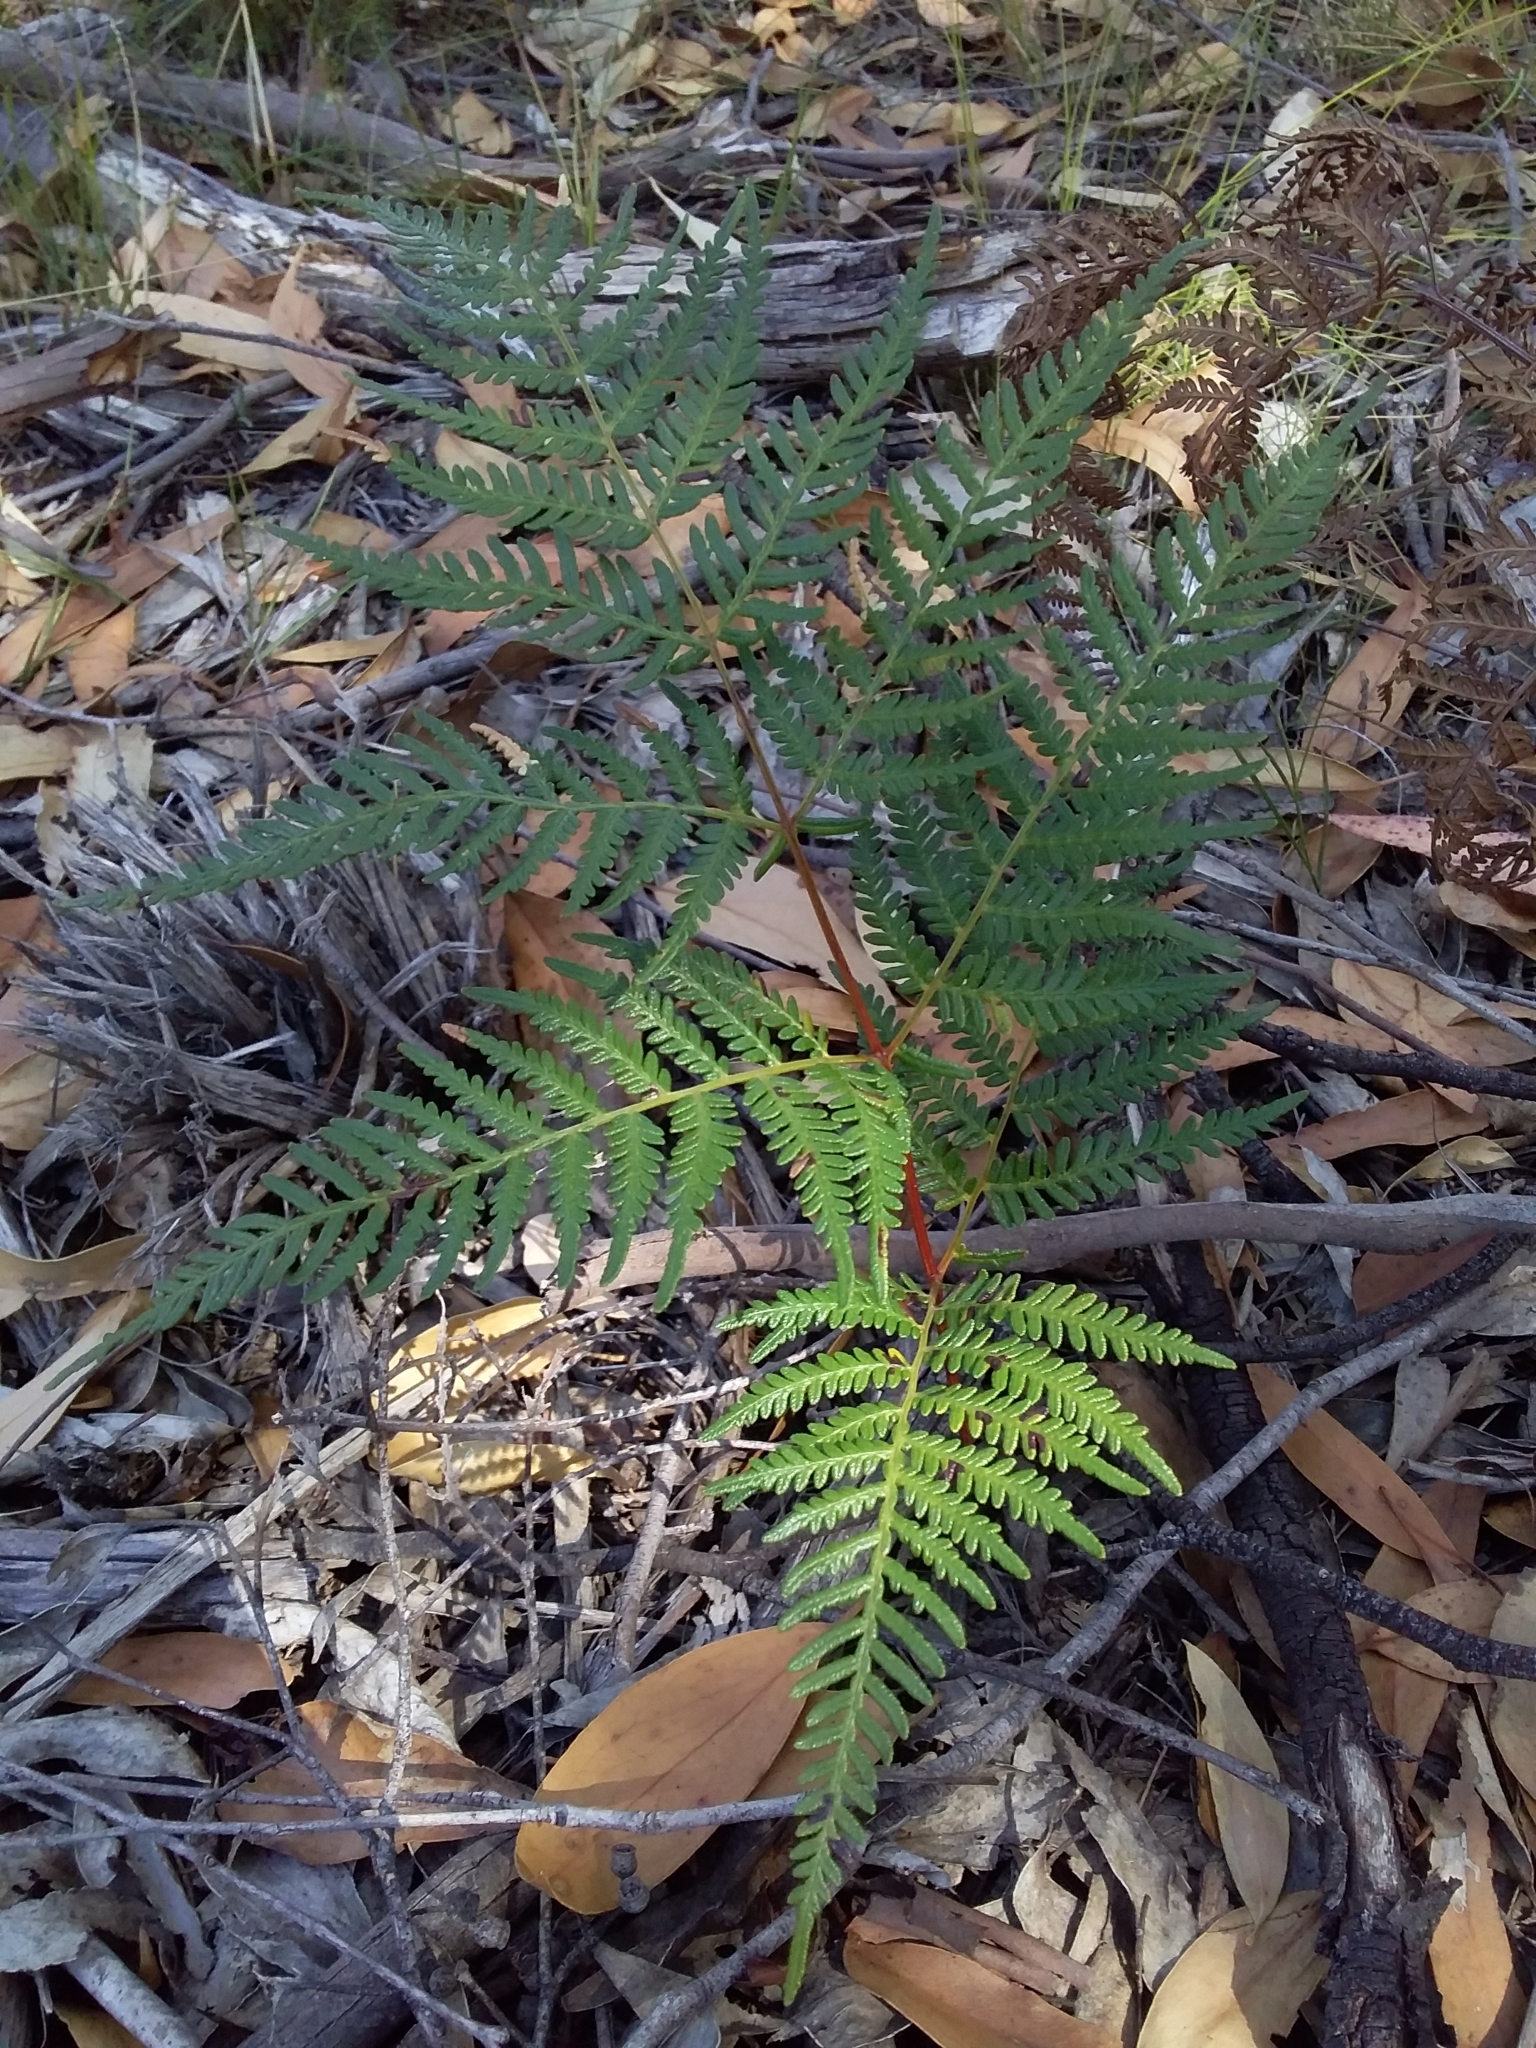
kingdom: Plantae
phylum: Tracheophyta
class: Polypodiopsida
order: Polypodiales
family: Dennstaedtiaceae
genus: Pteridium
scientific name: Pteridium esculentum
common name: Bracken fern
